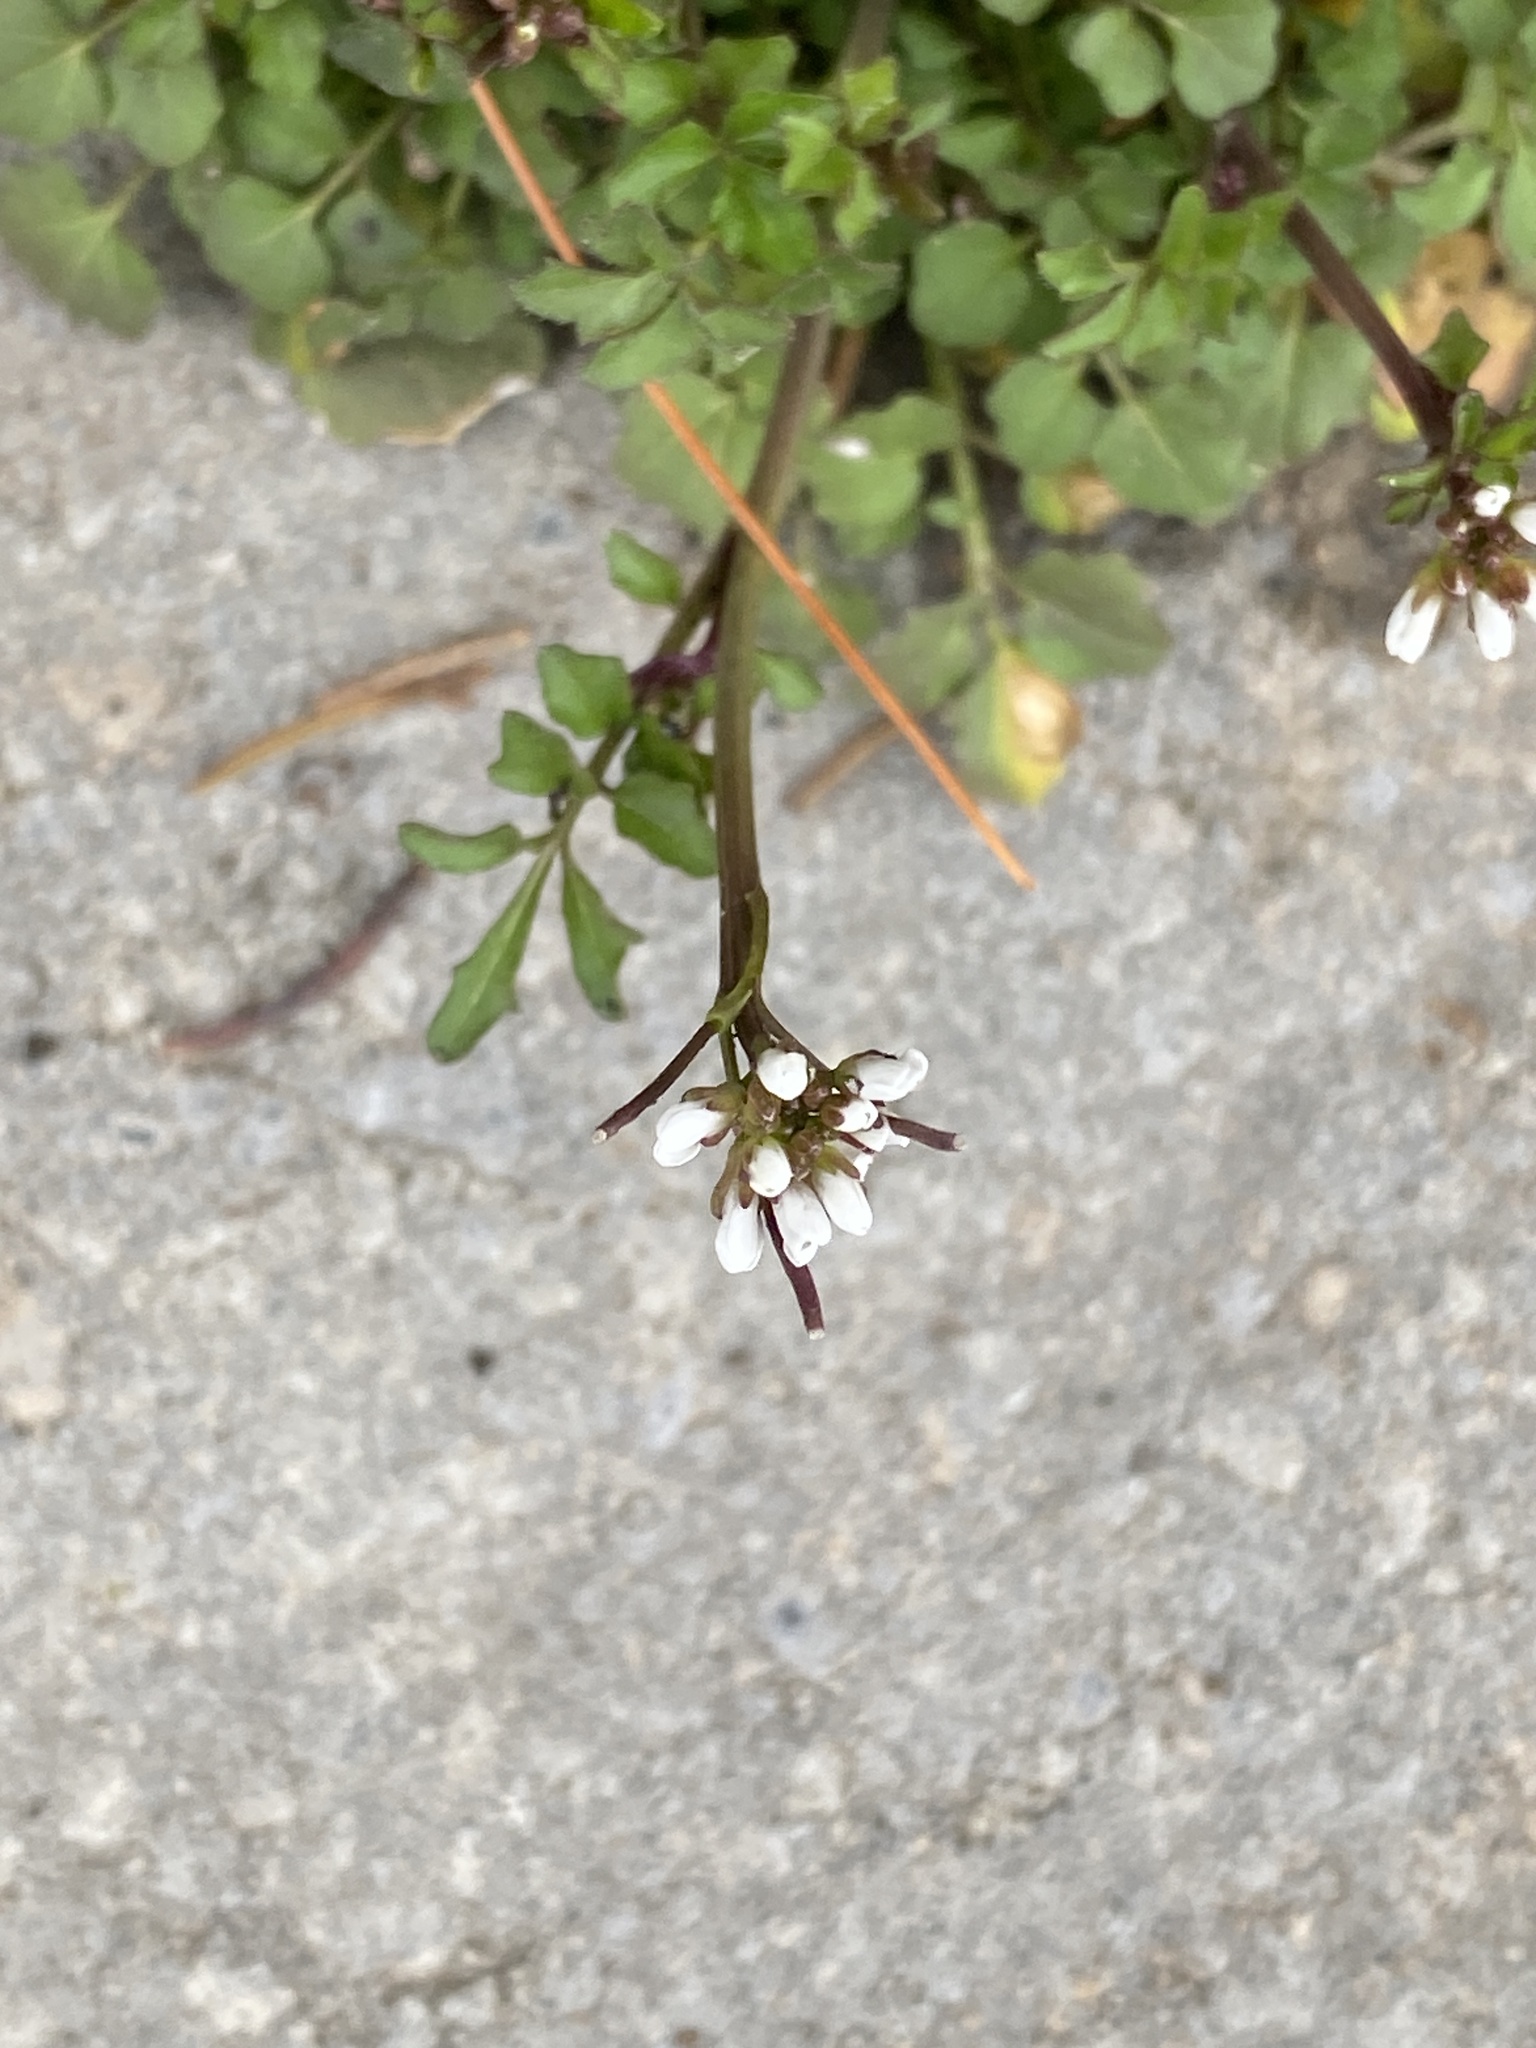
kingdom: Plantae
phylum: Tracheophyta
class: Magnoliopsida
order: Brassicales
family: Brassicaceae
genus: Cardamine
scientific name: Cardamine hirsuta
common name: Hairy bittercress
